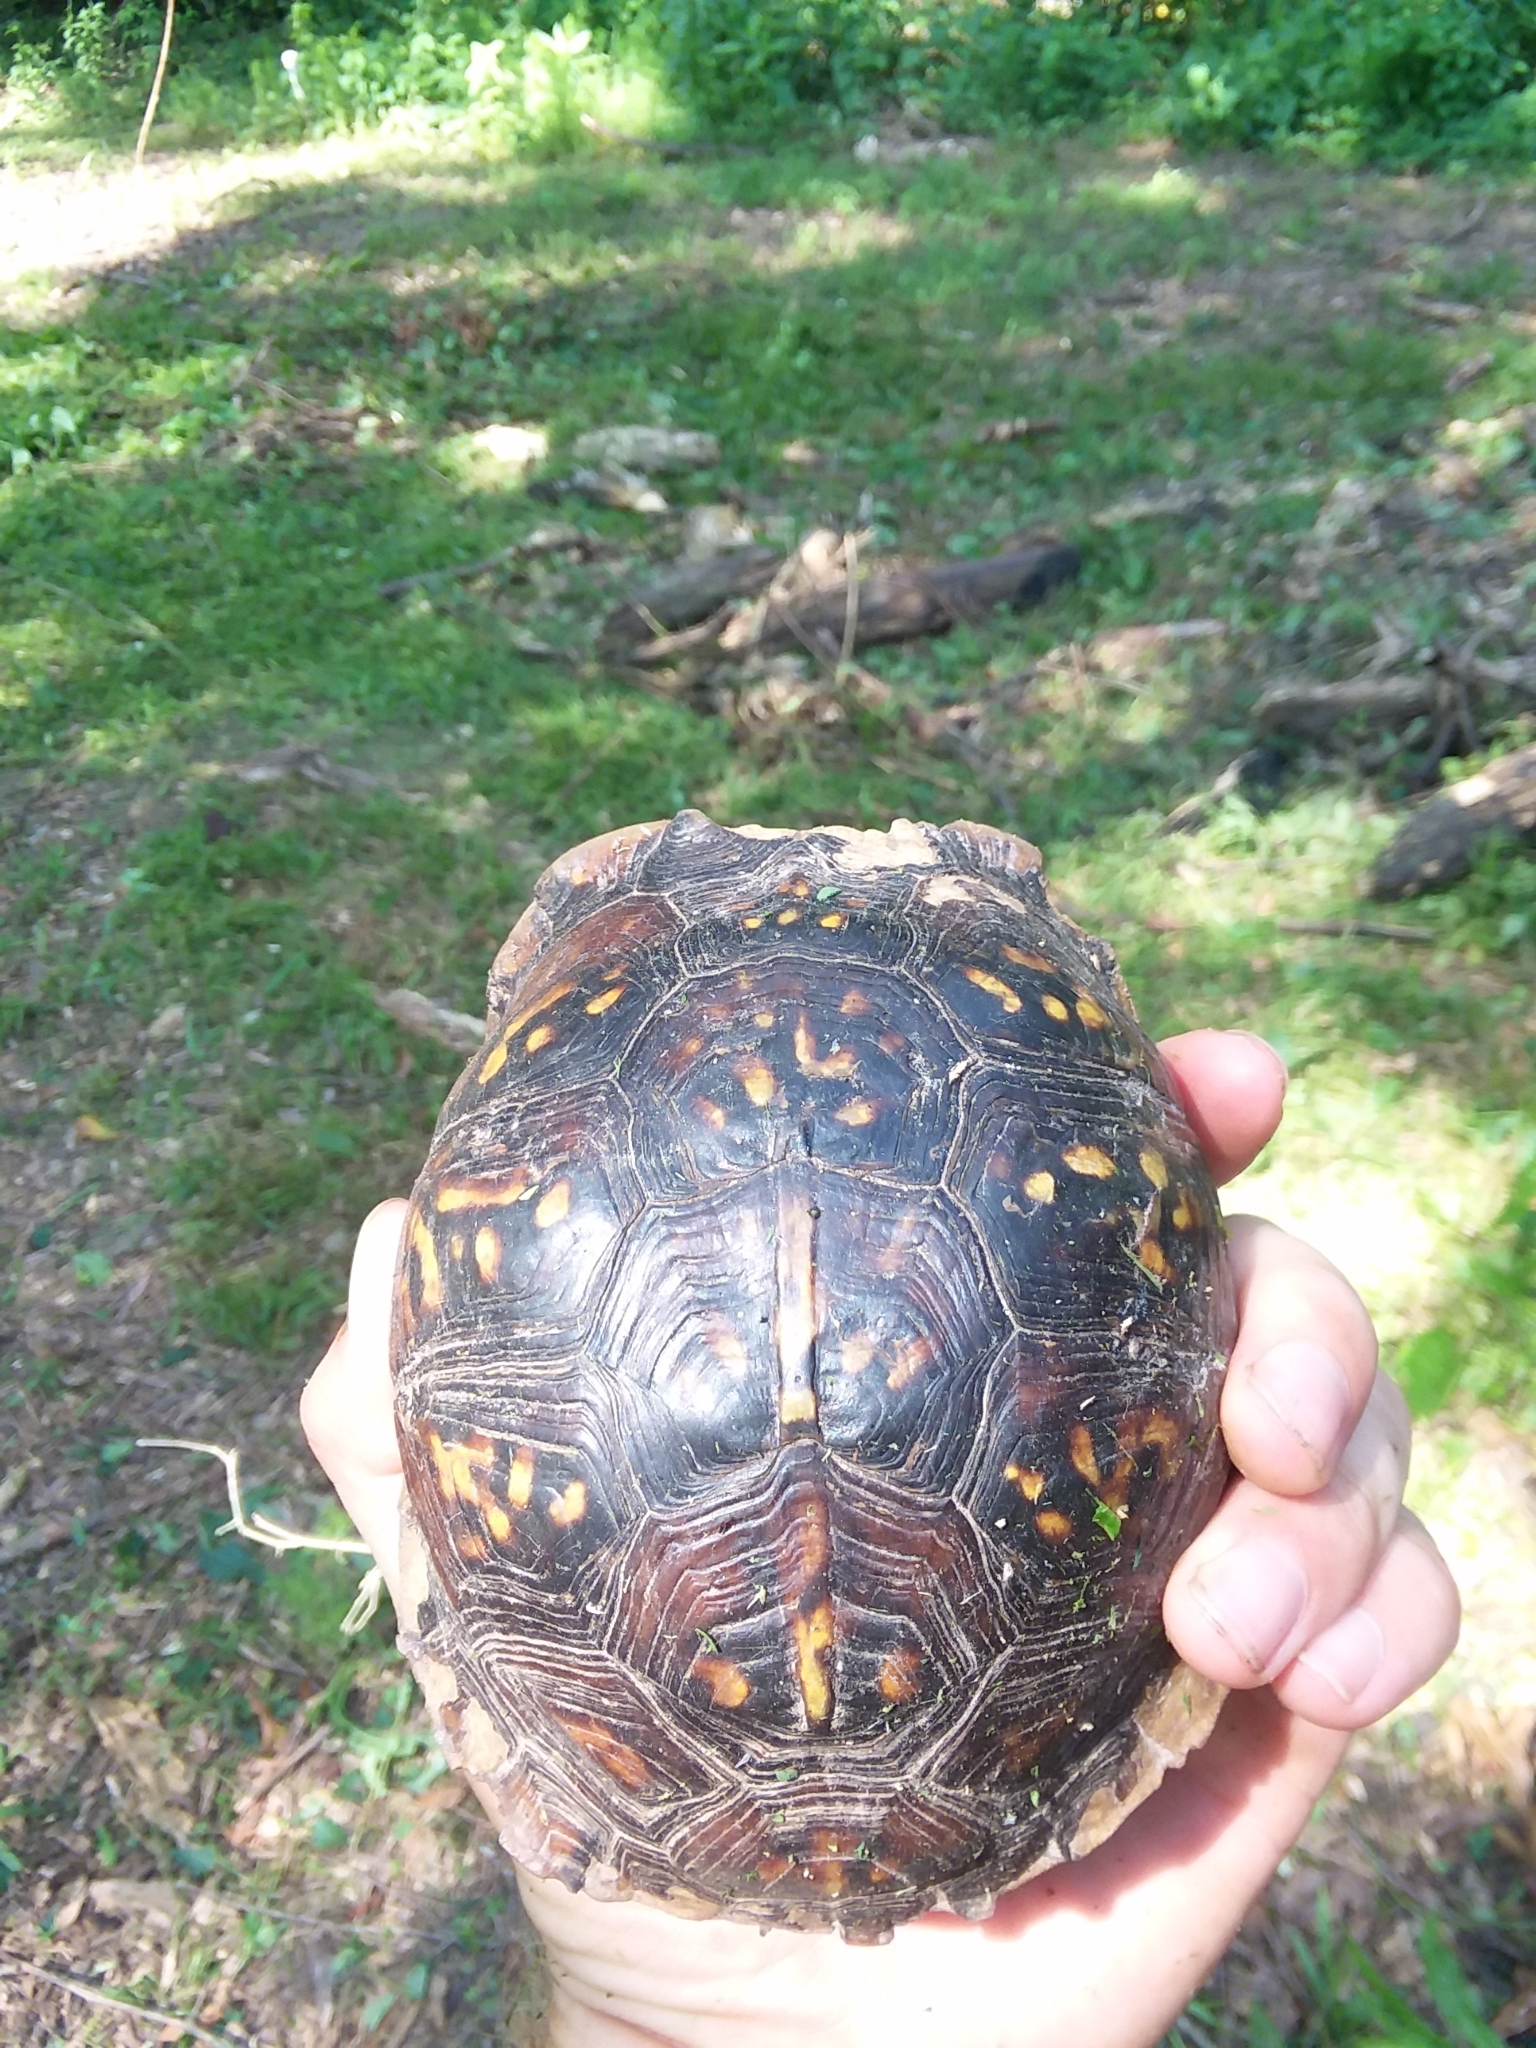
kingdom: Animalia
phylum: Chordata
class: Testudines
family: Emydidae
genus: Terrapene
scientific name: Terrapene carolina
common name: Common box turtle
